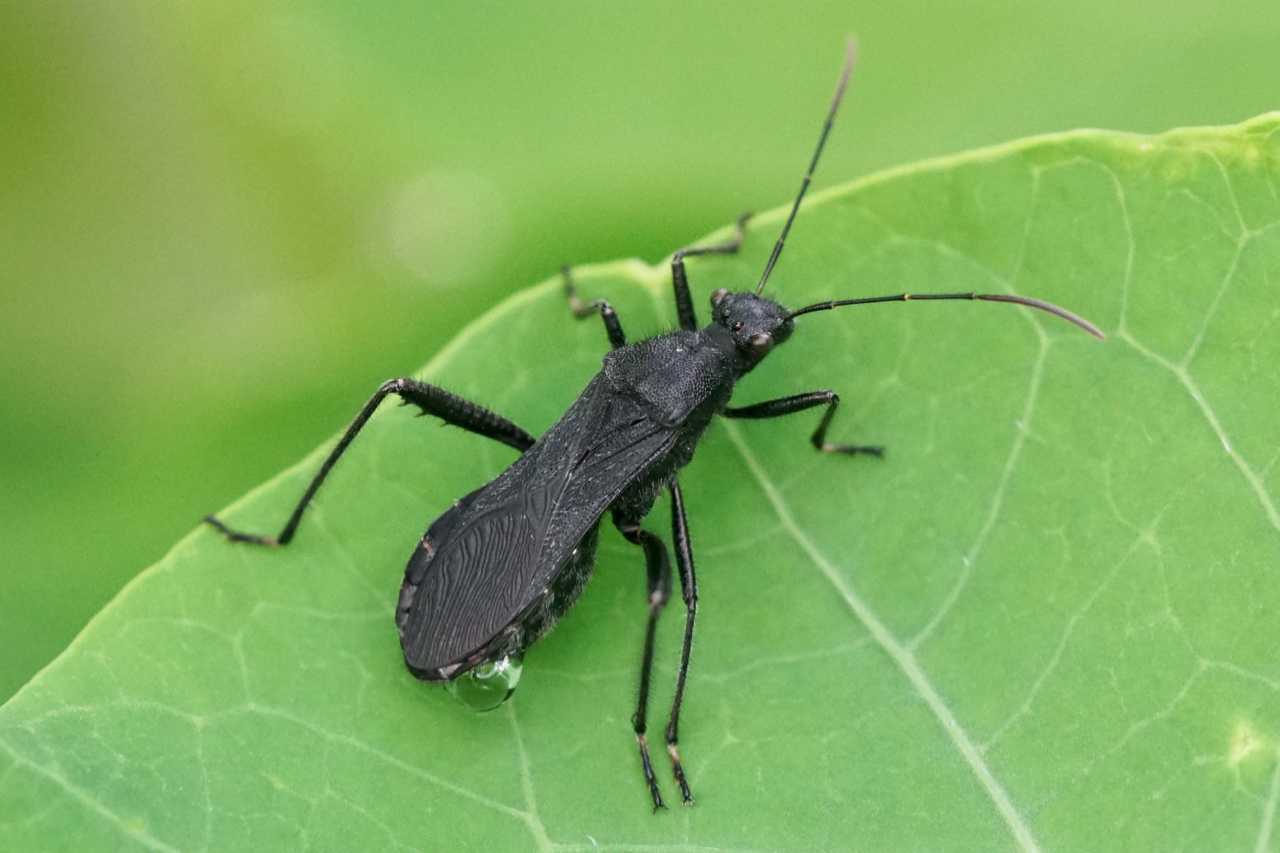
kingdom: Animalia
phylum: Arthropoda
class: Insecta
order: Hemiptera
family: Alydidae
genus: Alydus
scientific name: Alydus eurinus
